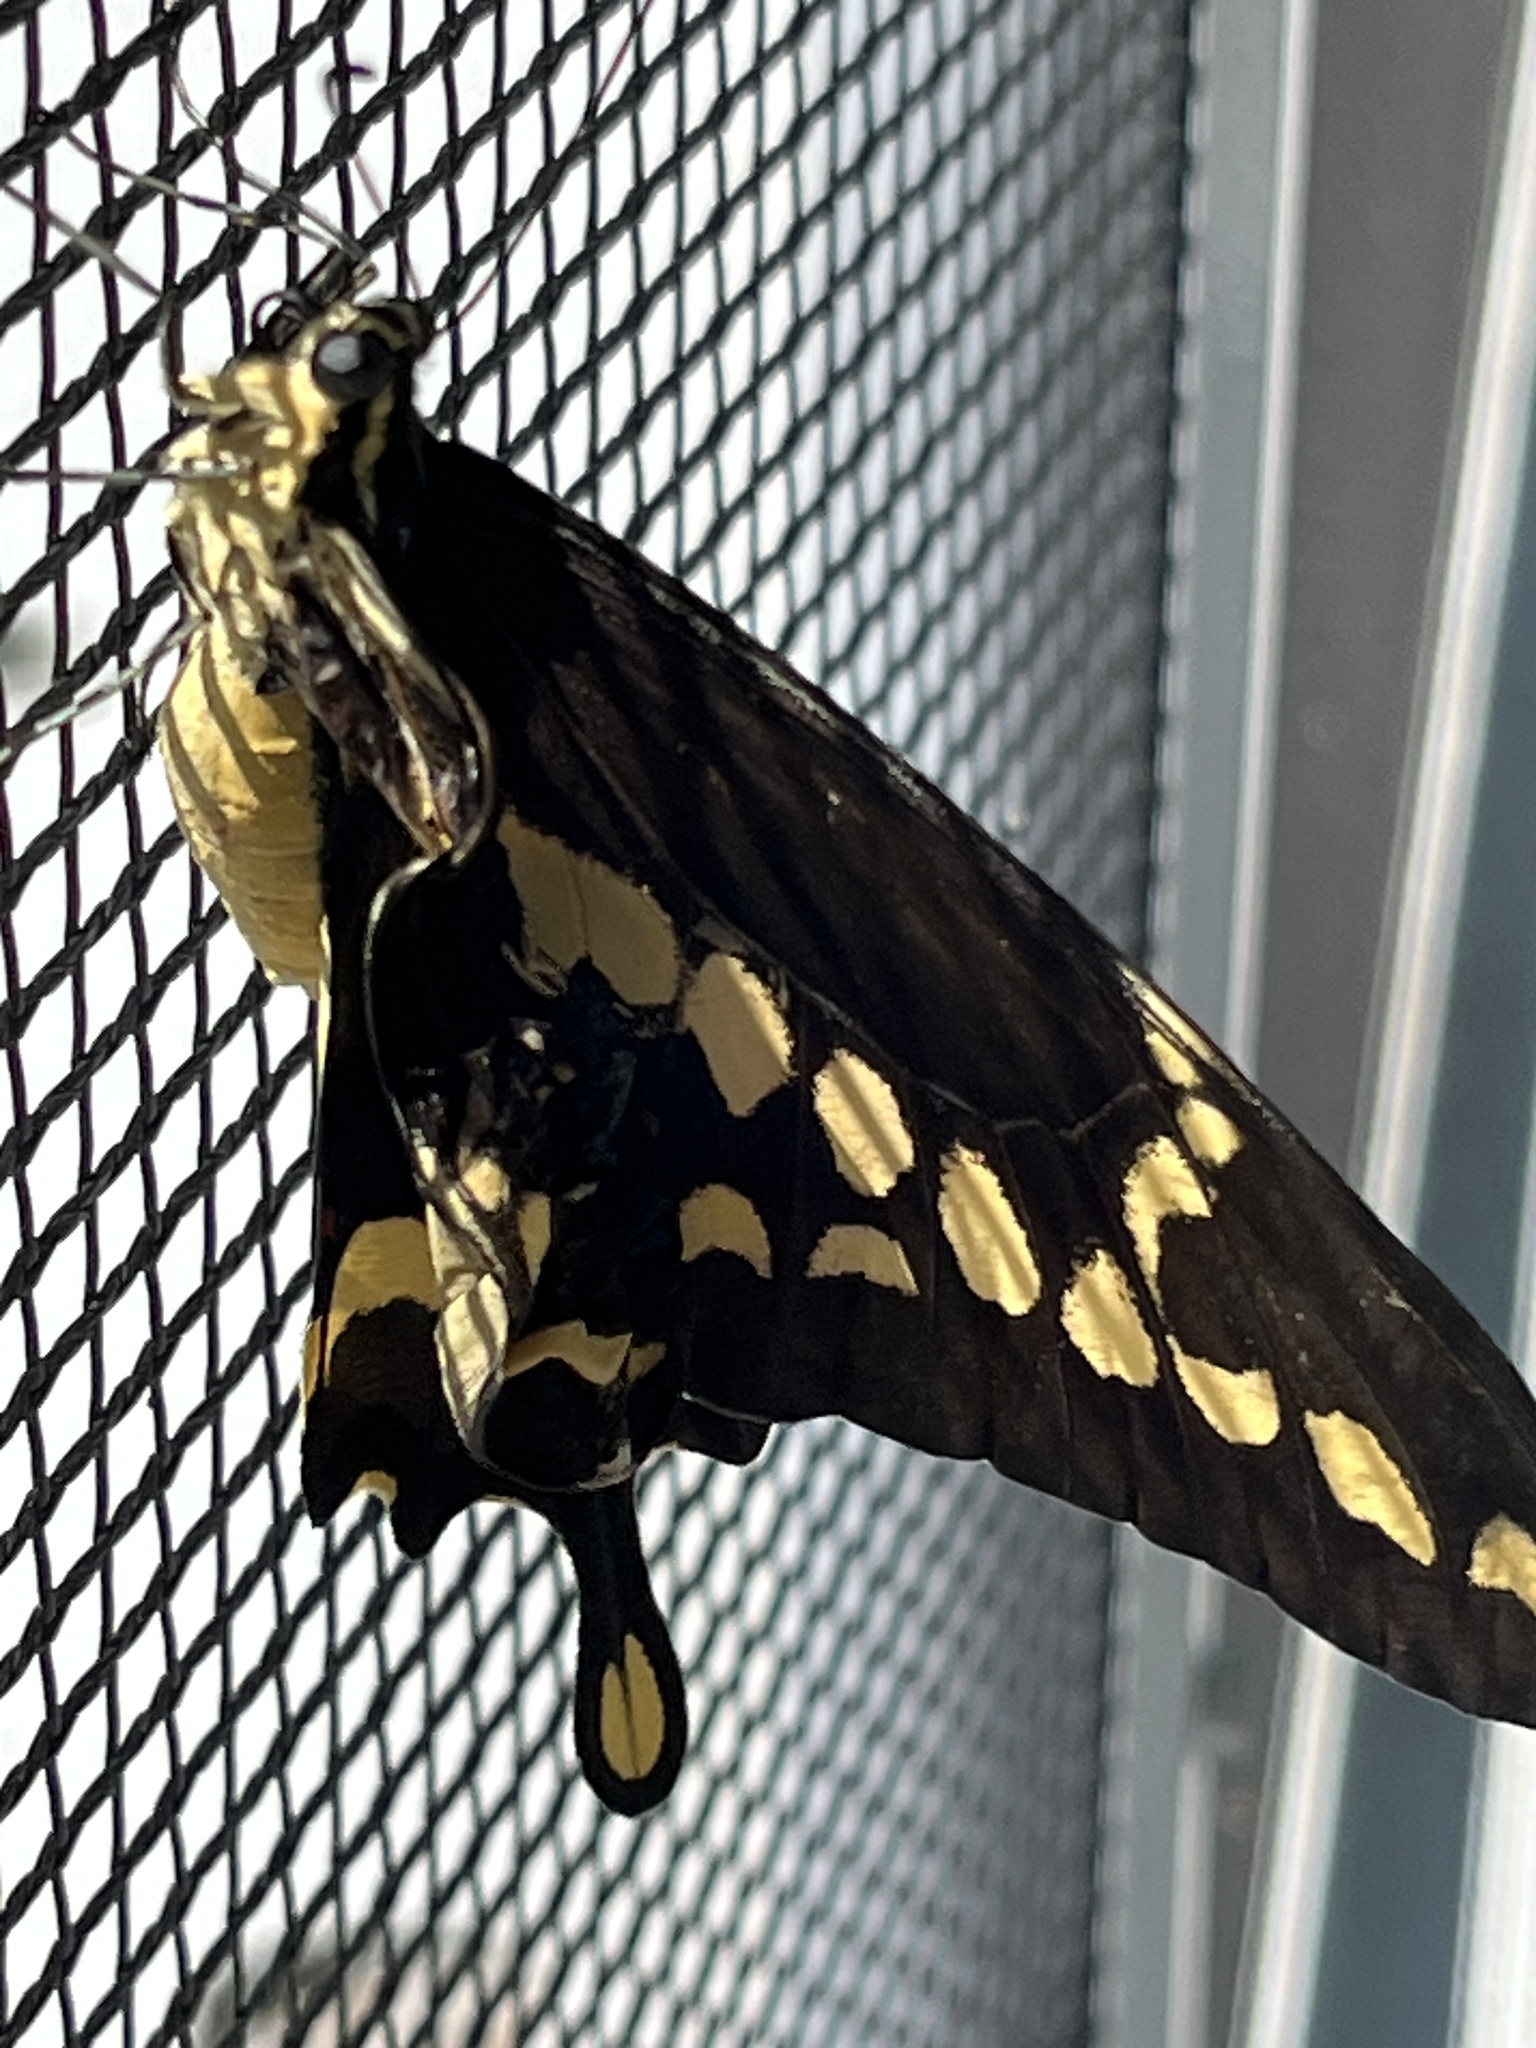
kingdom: Animalia
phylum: Arthropoda
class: Insecta
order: Lepidoptera
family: Papilionidae
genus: Papilio
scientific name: Papilio rumiko
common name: Western giant swallowtail
